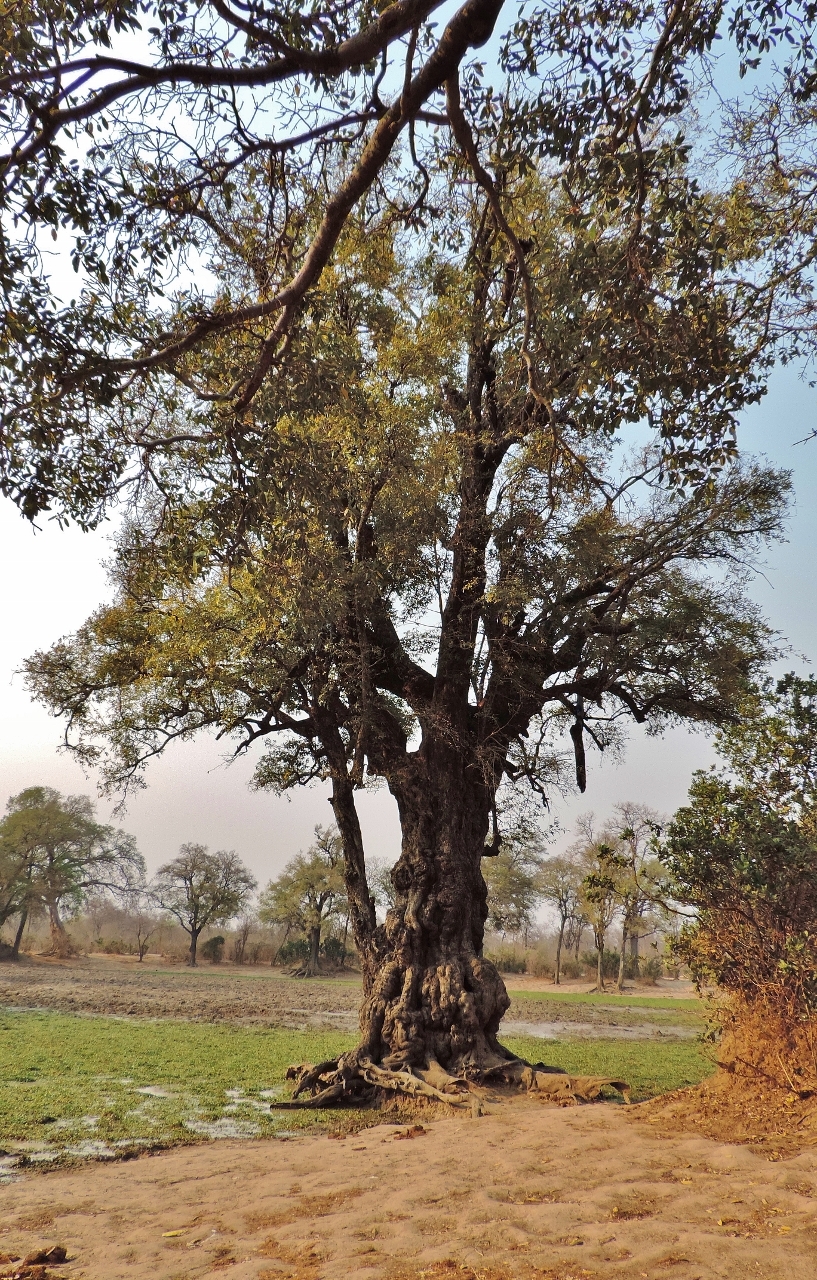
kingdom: Plantae
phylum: Tracheophyta
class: Magnoliopsida
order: Ericales
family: Ebenaceae
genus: Diospyros
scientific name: Diospyros mespiliformis
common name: Ebony diospyros
